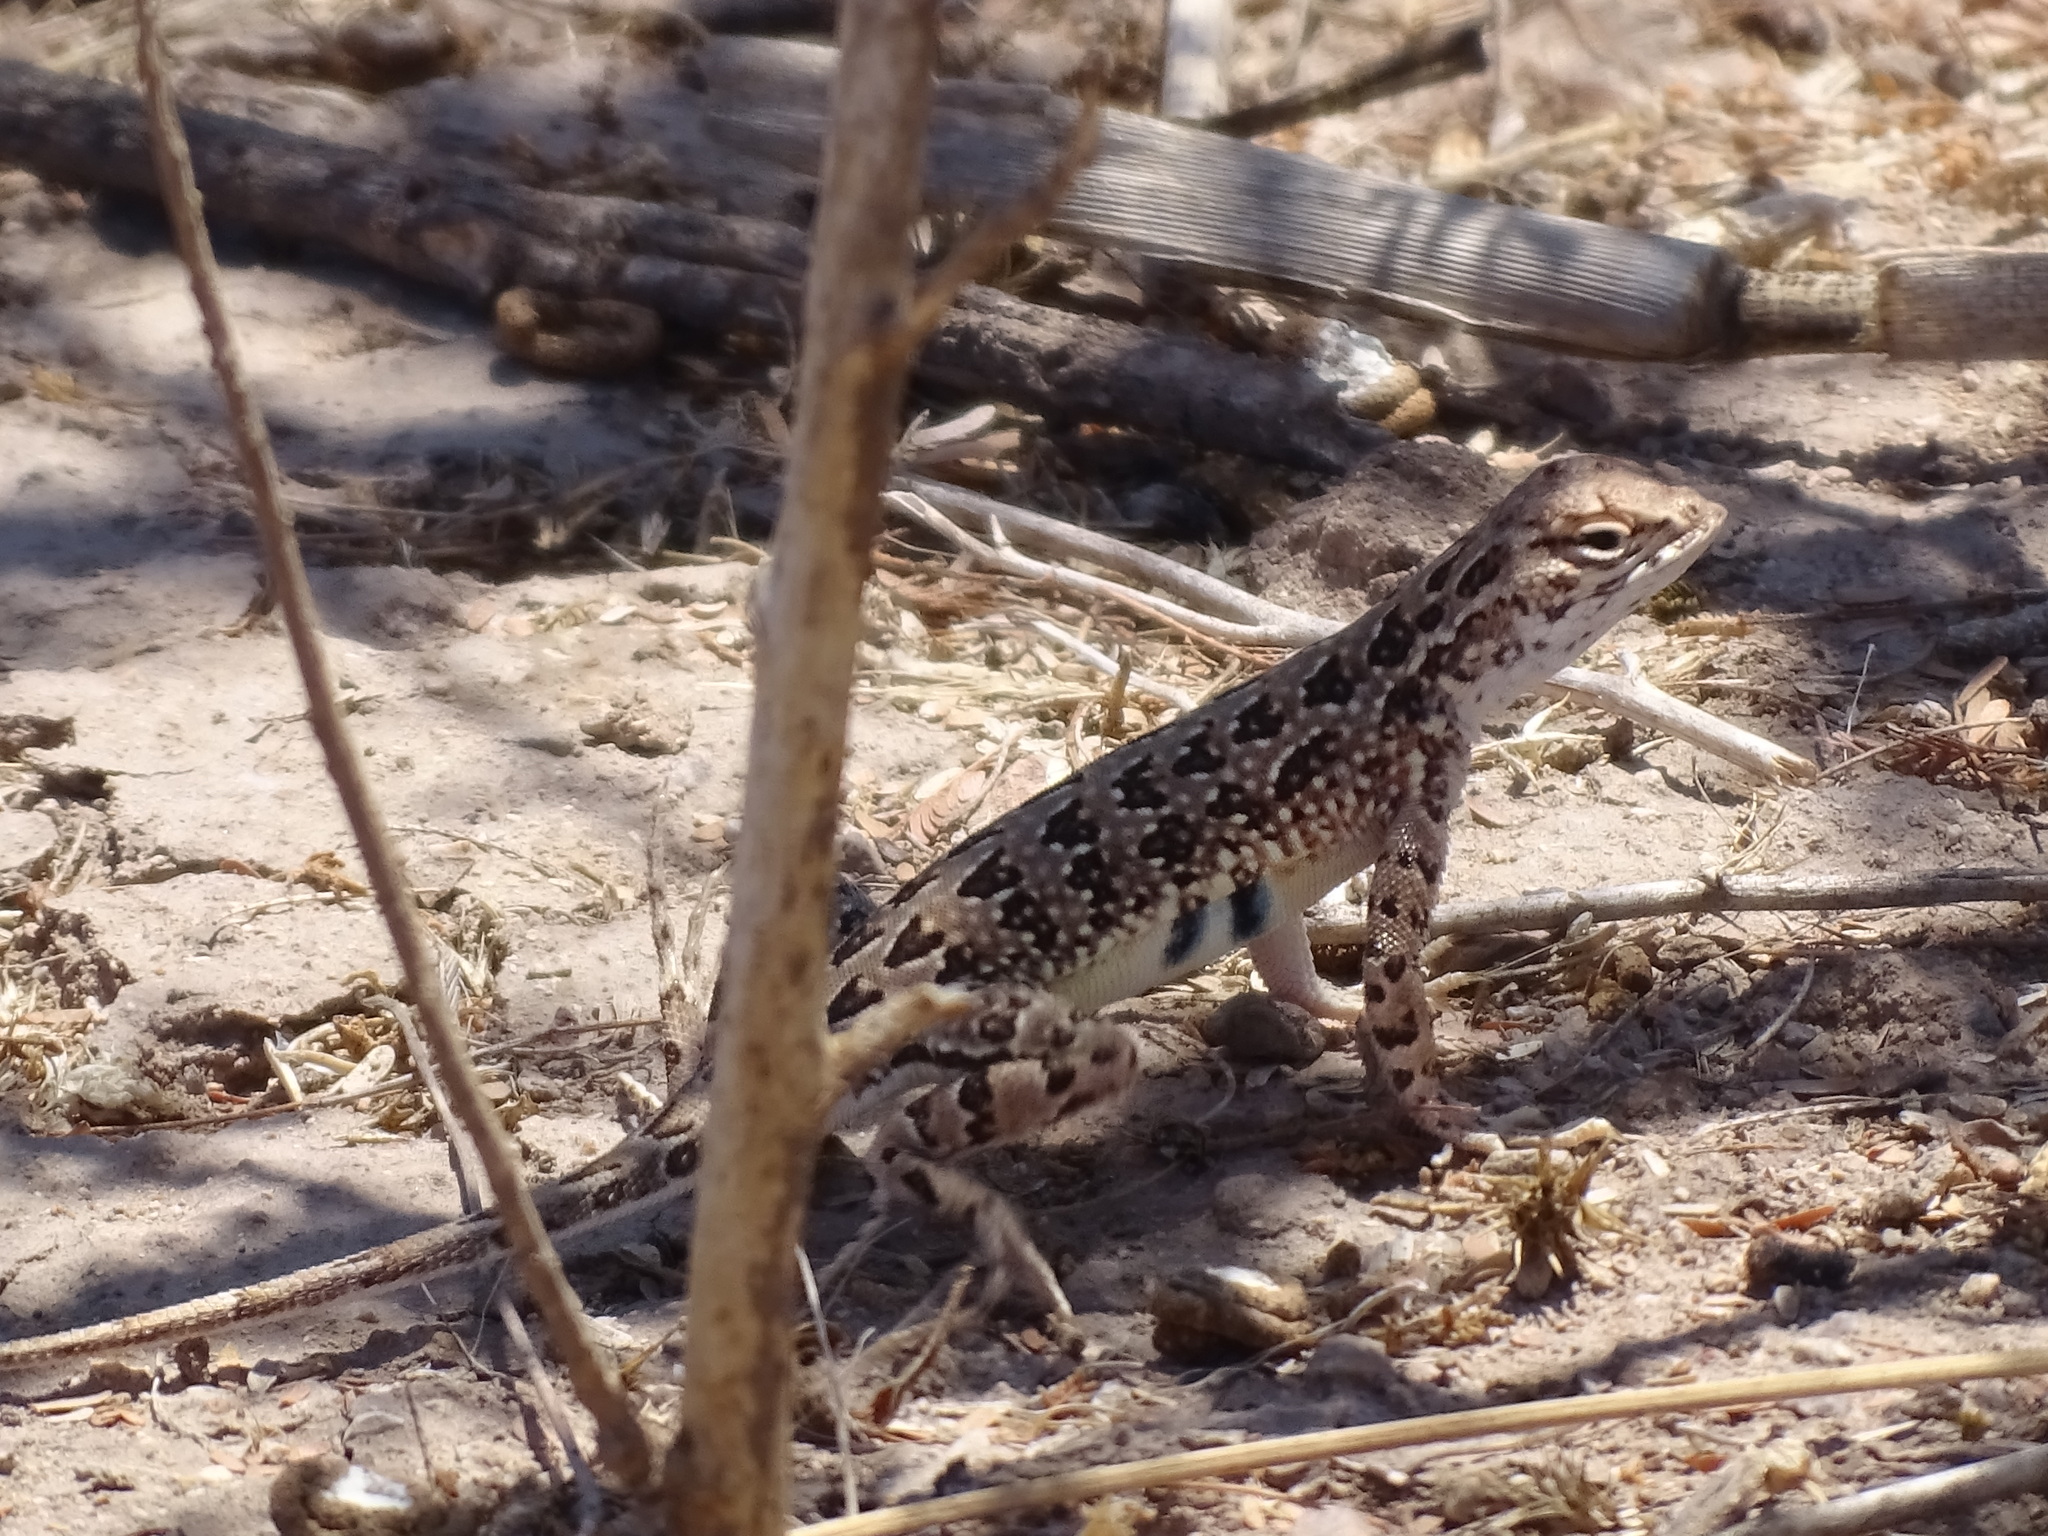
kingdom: Animalia
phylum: Chordata
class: Squamata
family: Phrynosomatidae
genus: Holbrookia
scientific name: Holbrookia elegans
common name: Elegant earless lizard
